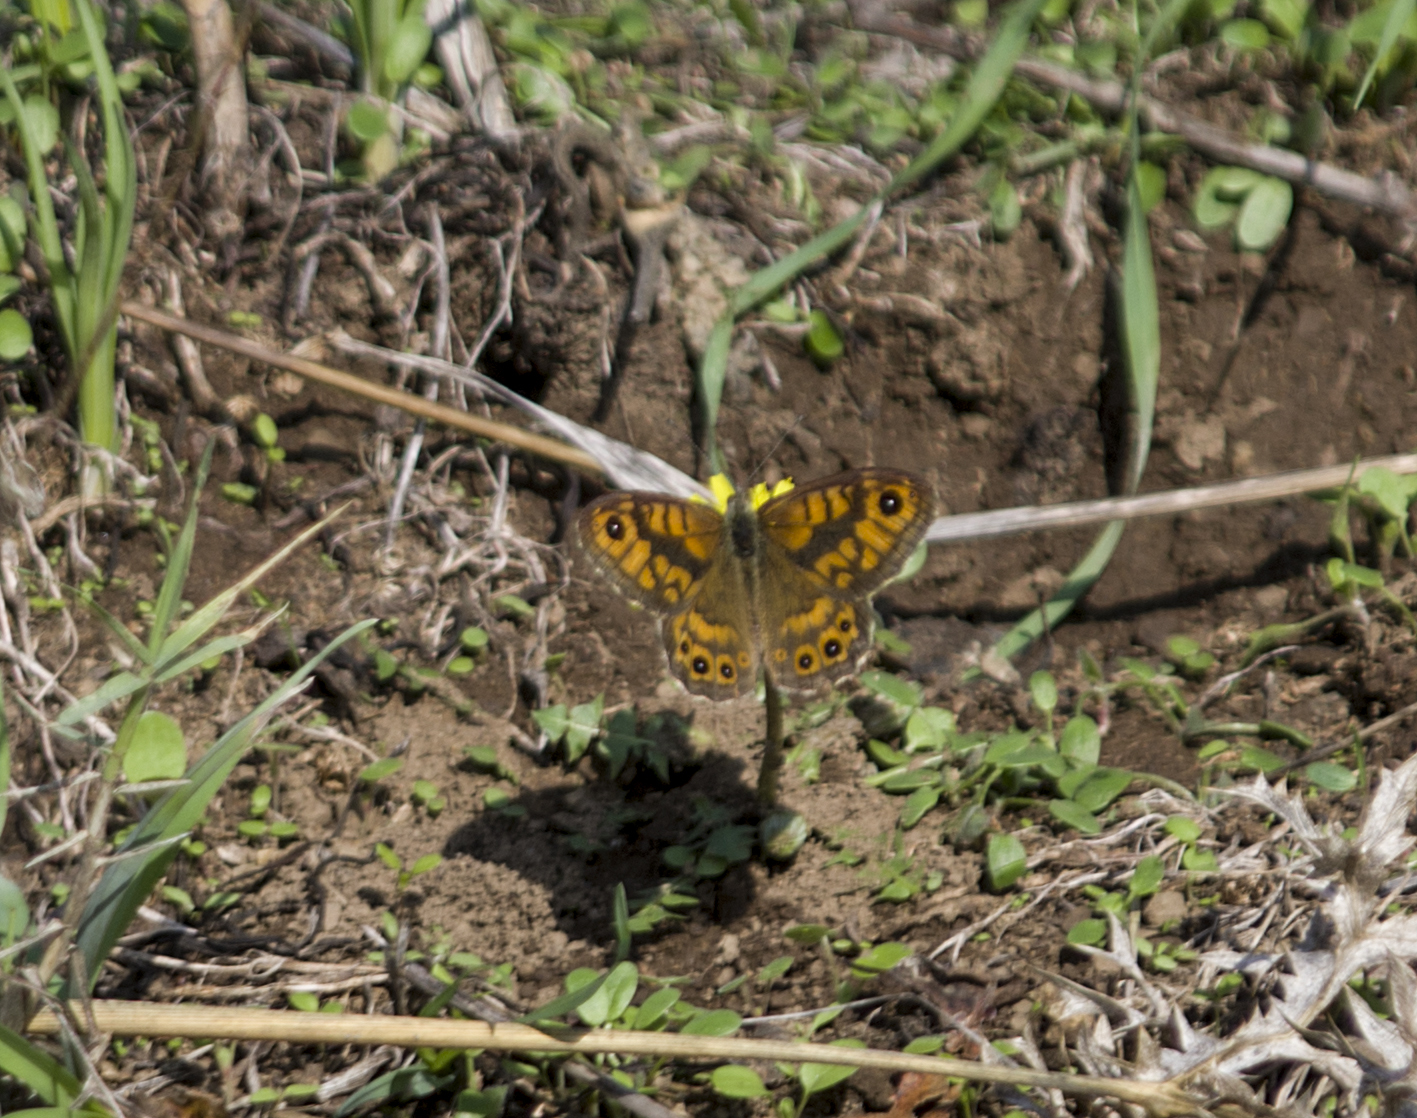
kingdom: Animalia
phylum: Arthropoda
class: Insecta
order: Lepidoptera
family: Nymphalidae
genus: Pararge
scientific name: Pararge Lasiommata megera
